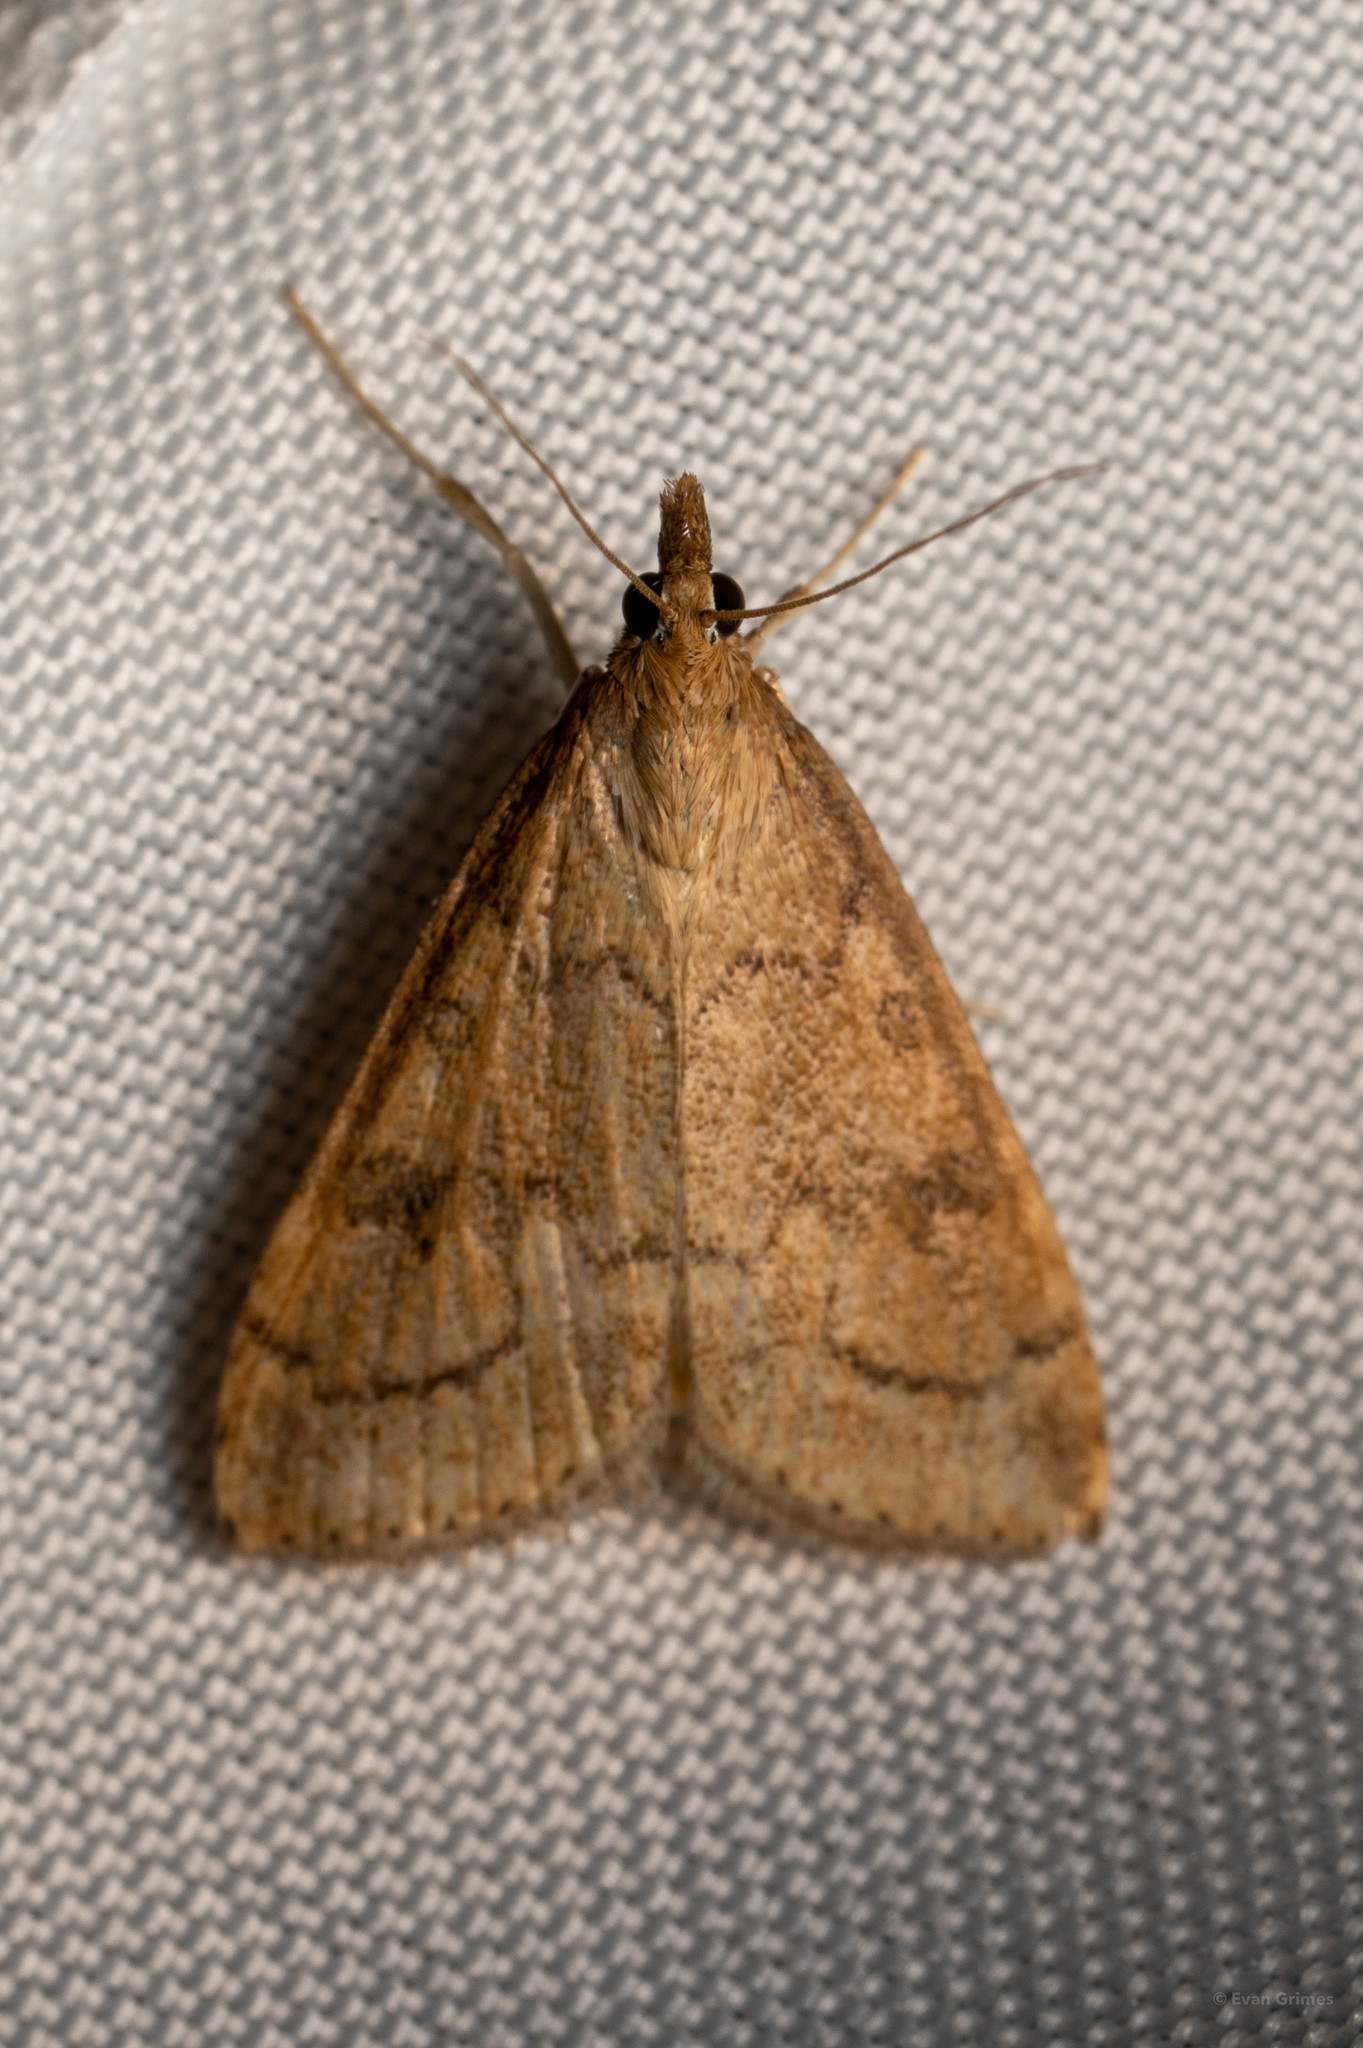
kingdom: Animalia
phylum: Arthropoda
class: Insecta
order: Lepidoptera
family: Crambidae
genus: Udea
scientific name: Udea rubigalis
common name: Celery leaftier moth
